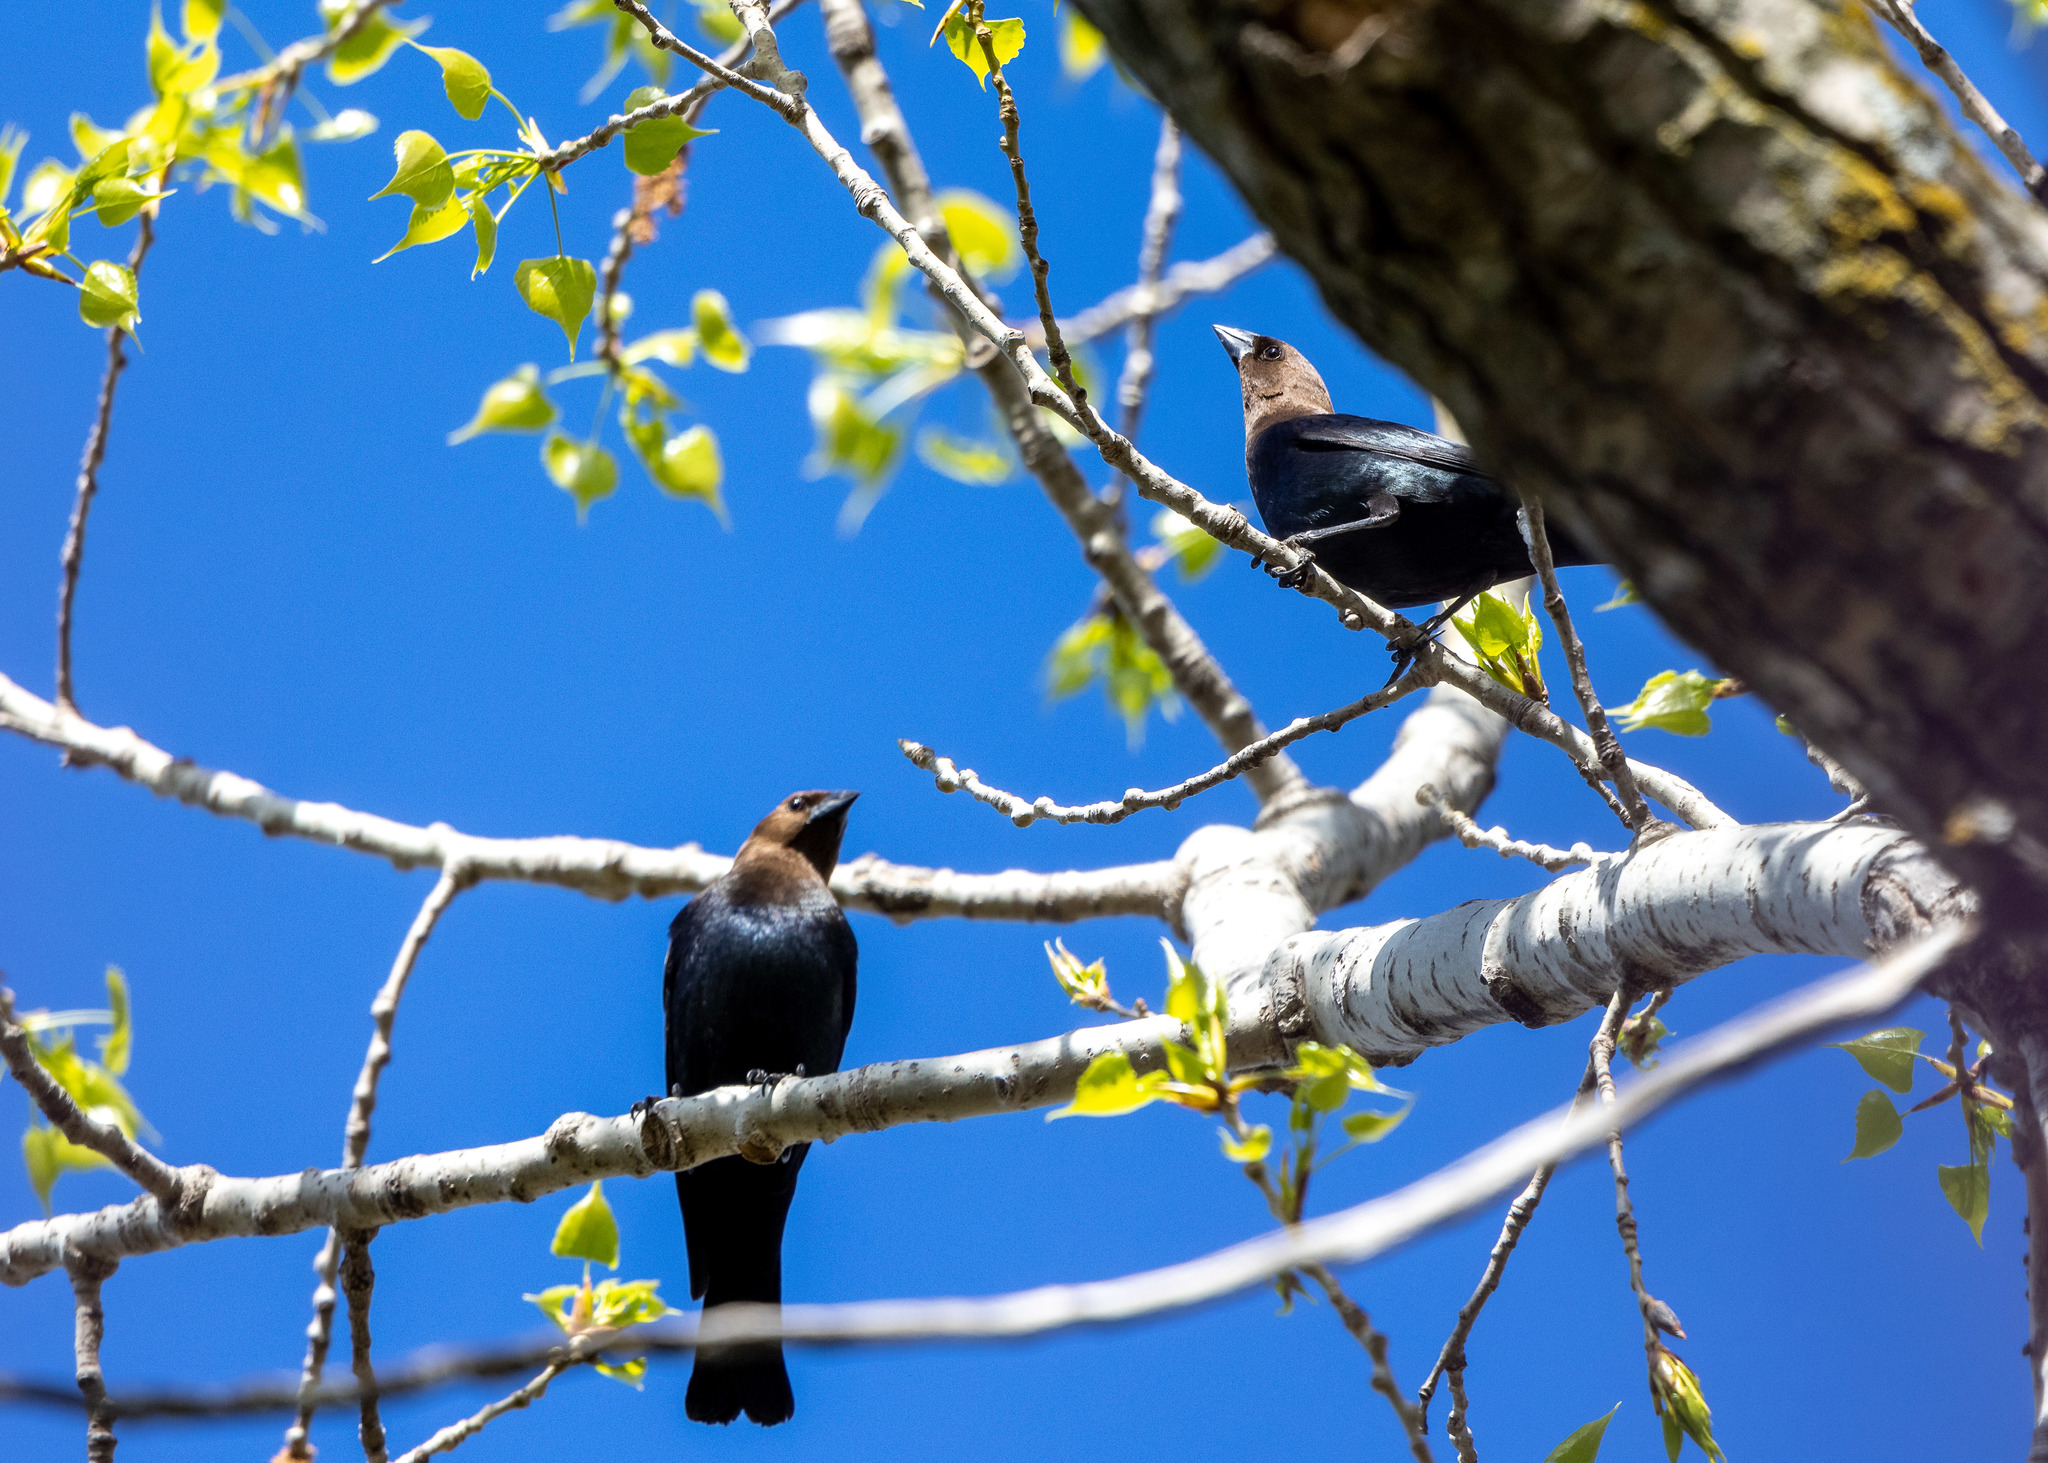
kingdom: Animalia
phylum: Chordata
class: Aves
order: Passeriformes
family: Icteridae
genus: Molothrus
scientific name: Molothrus ater
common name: Brown-headed cowbird
